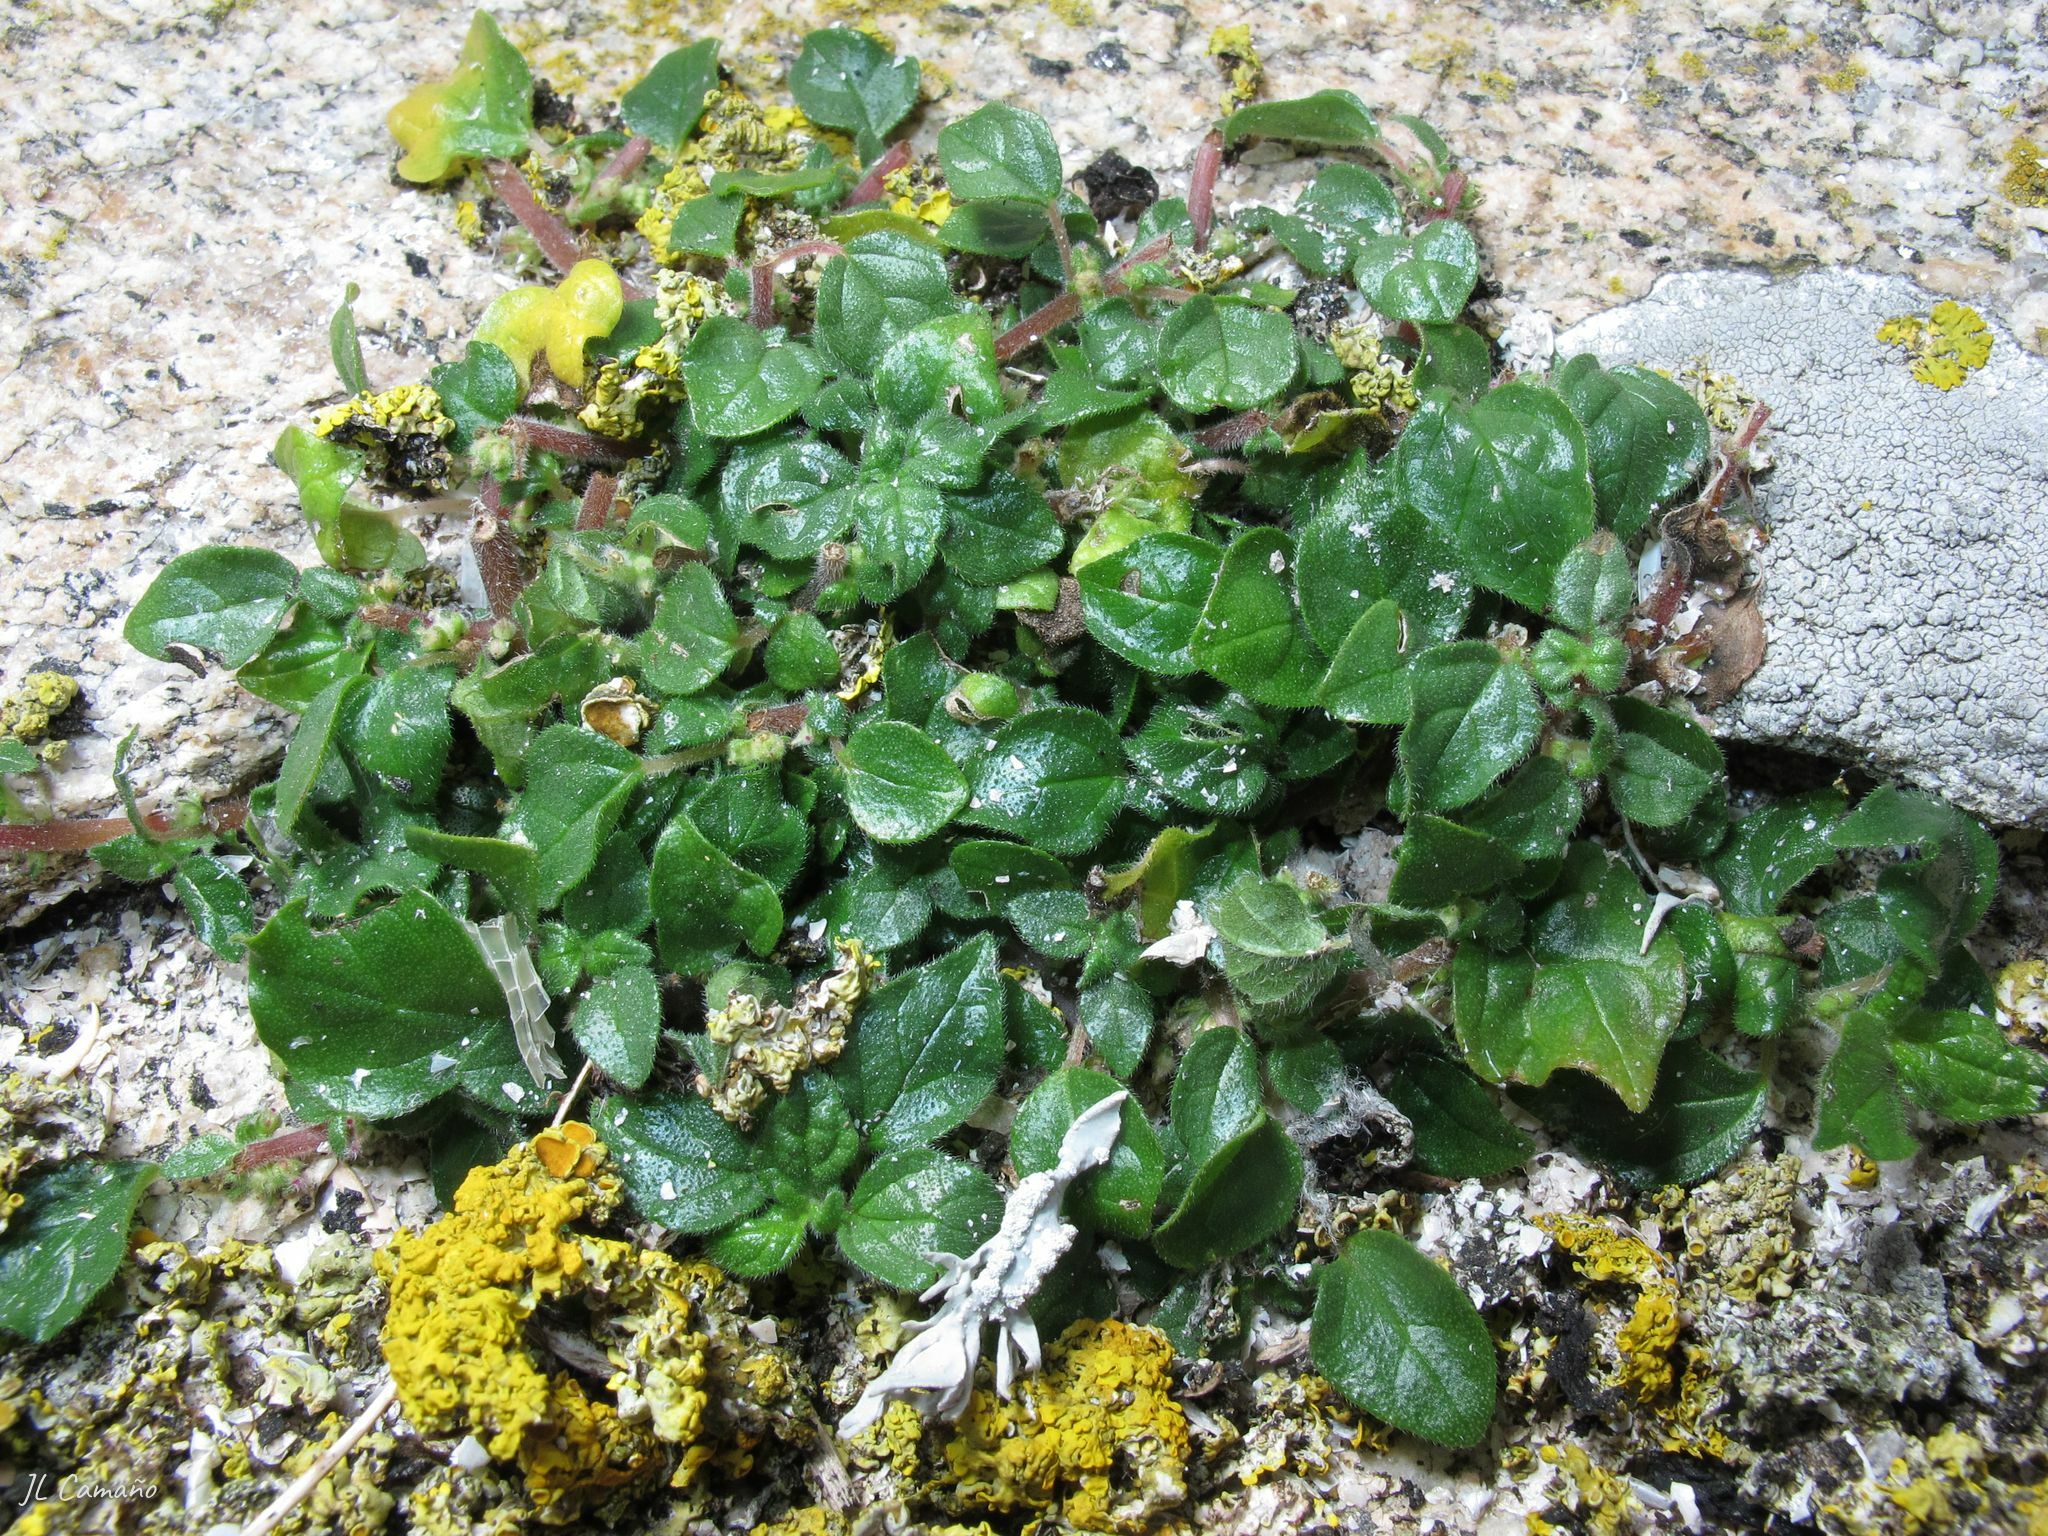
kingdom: Plantae
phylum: Tracheophyta
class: Magnoliopsida
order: Brassicales
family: Brassicaceae
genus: Cochlearia
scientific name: Cochlearia danica
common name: Early scurvygrass
